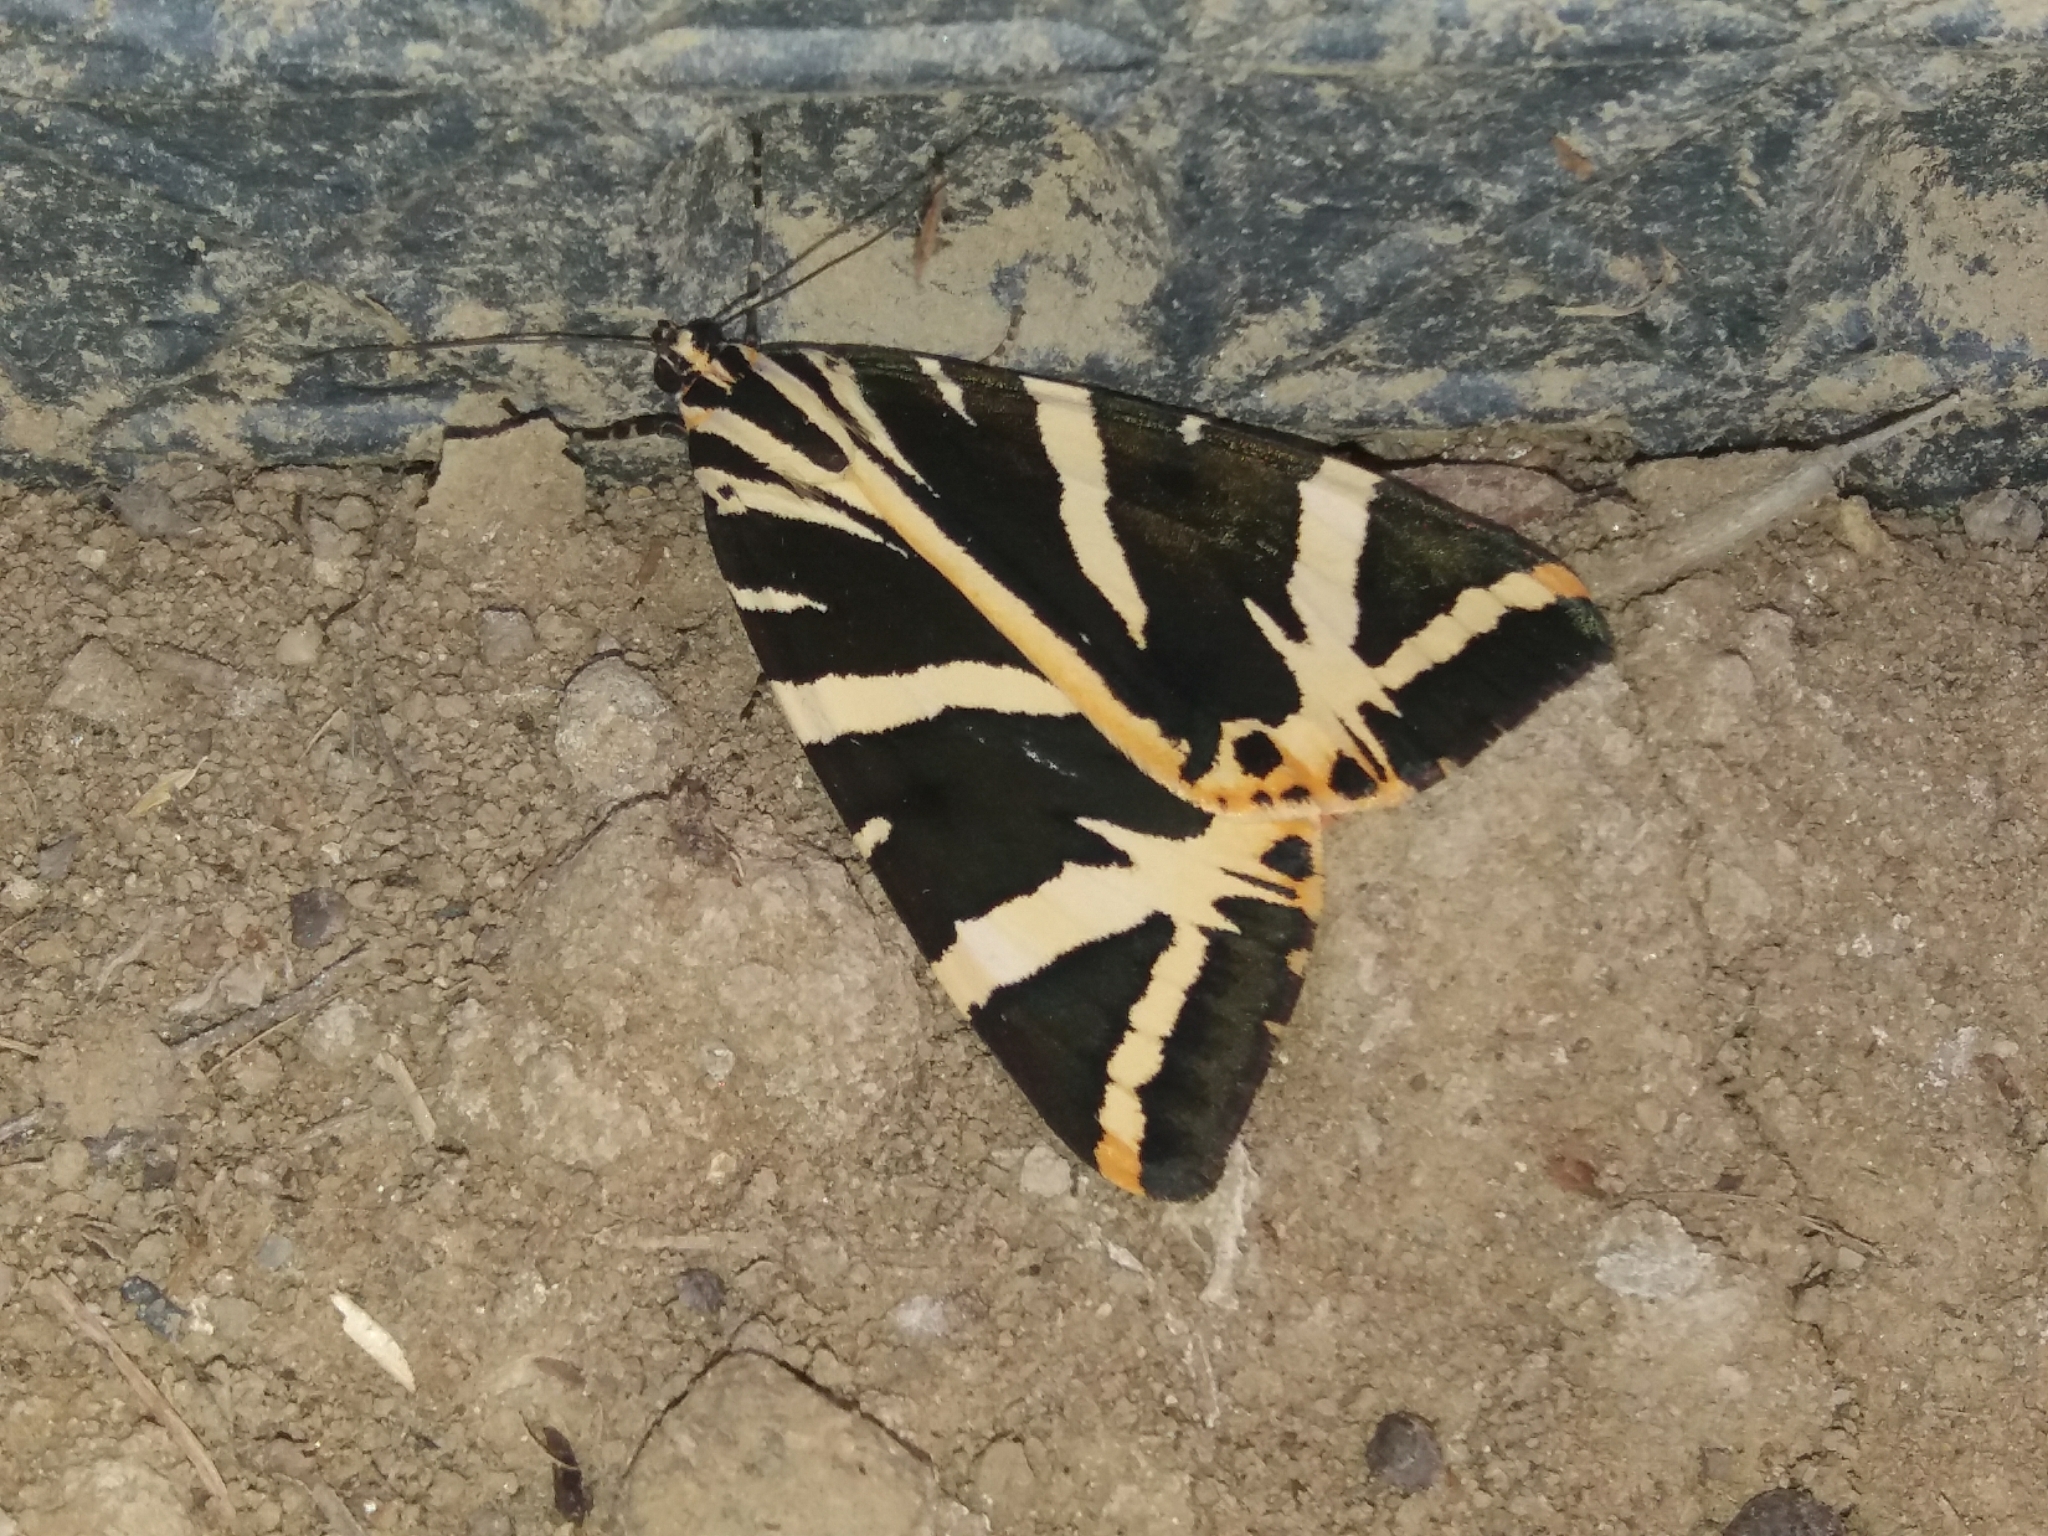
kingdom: Animalia
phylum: Arthropoda
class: Insecta
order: Lepidoptera
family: Erebidae
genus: Euplagia
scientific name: Euplagia quadripunctaria
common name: Jersey tiger
